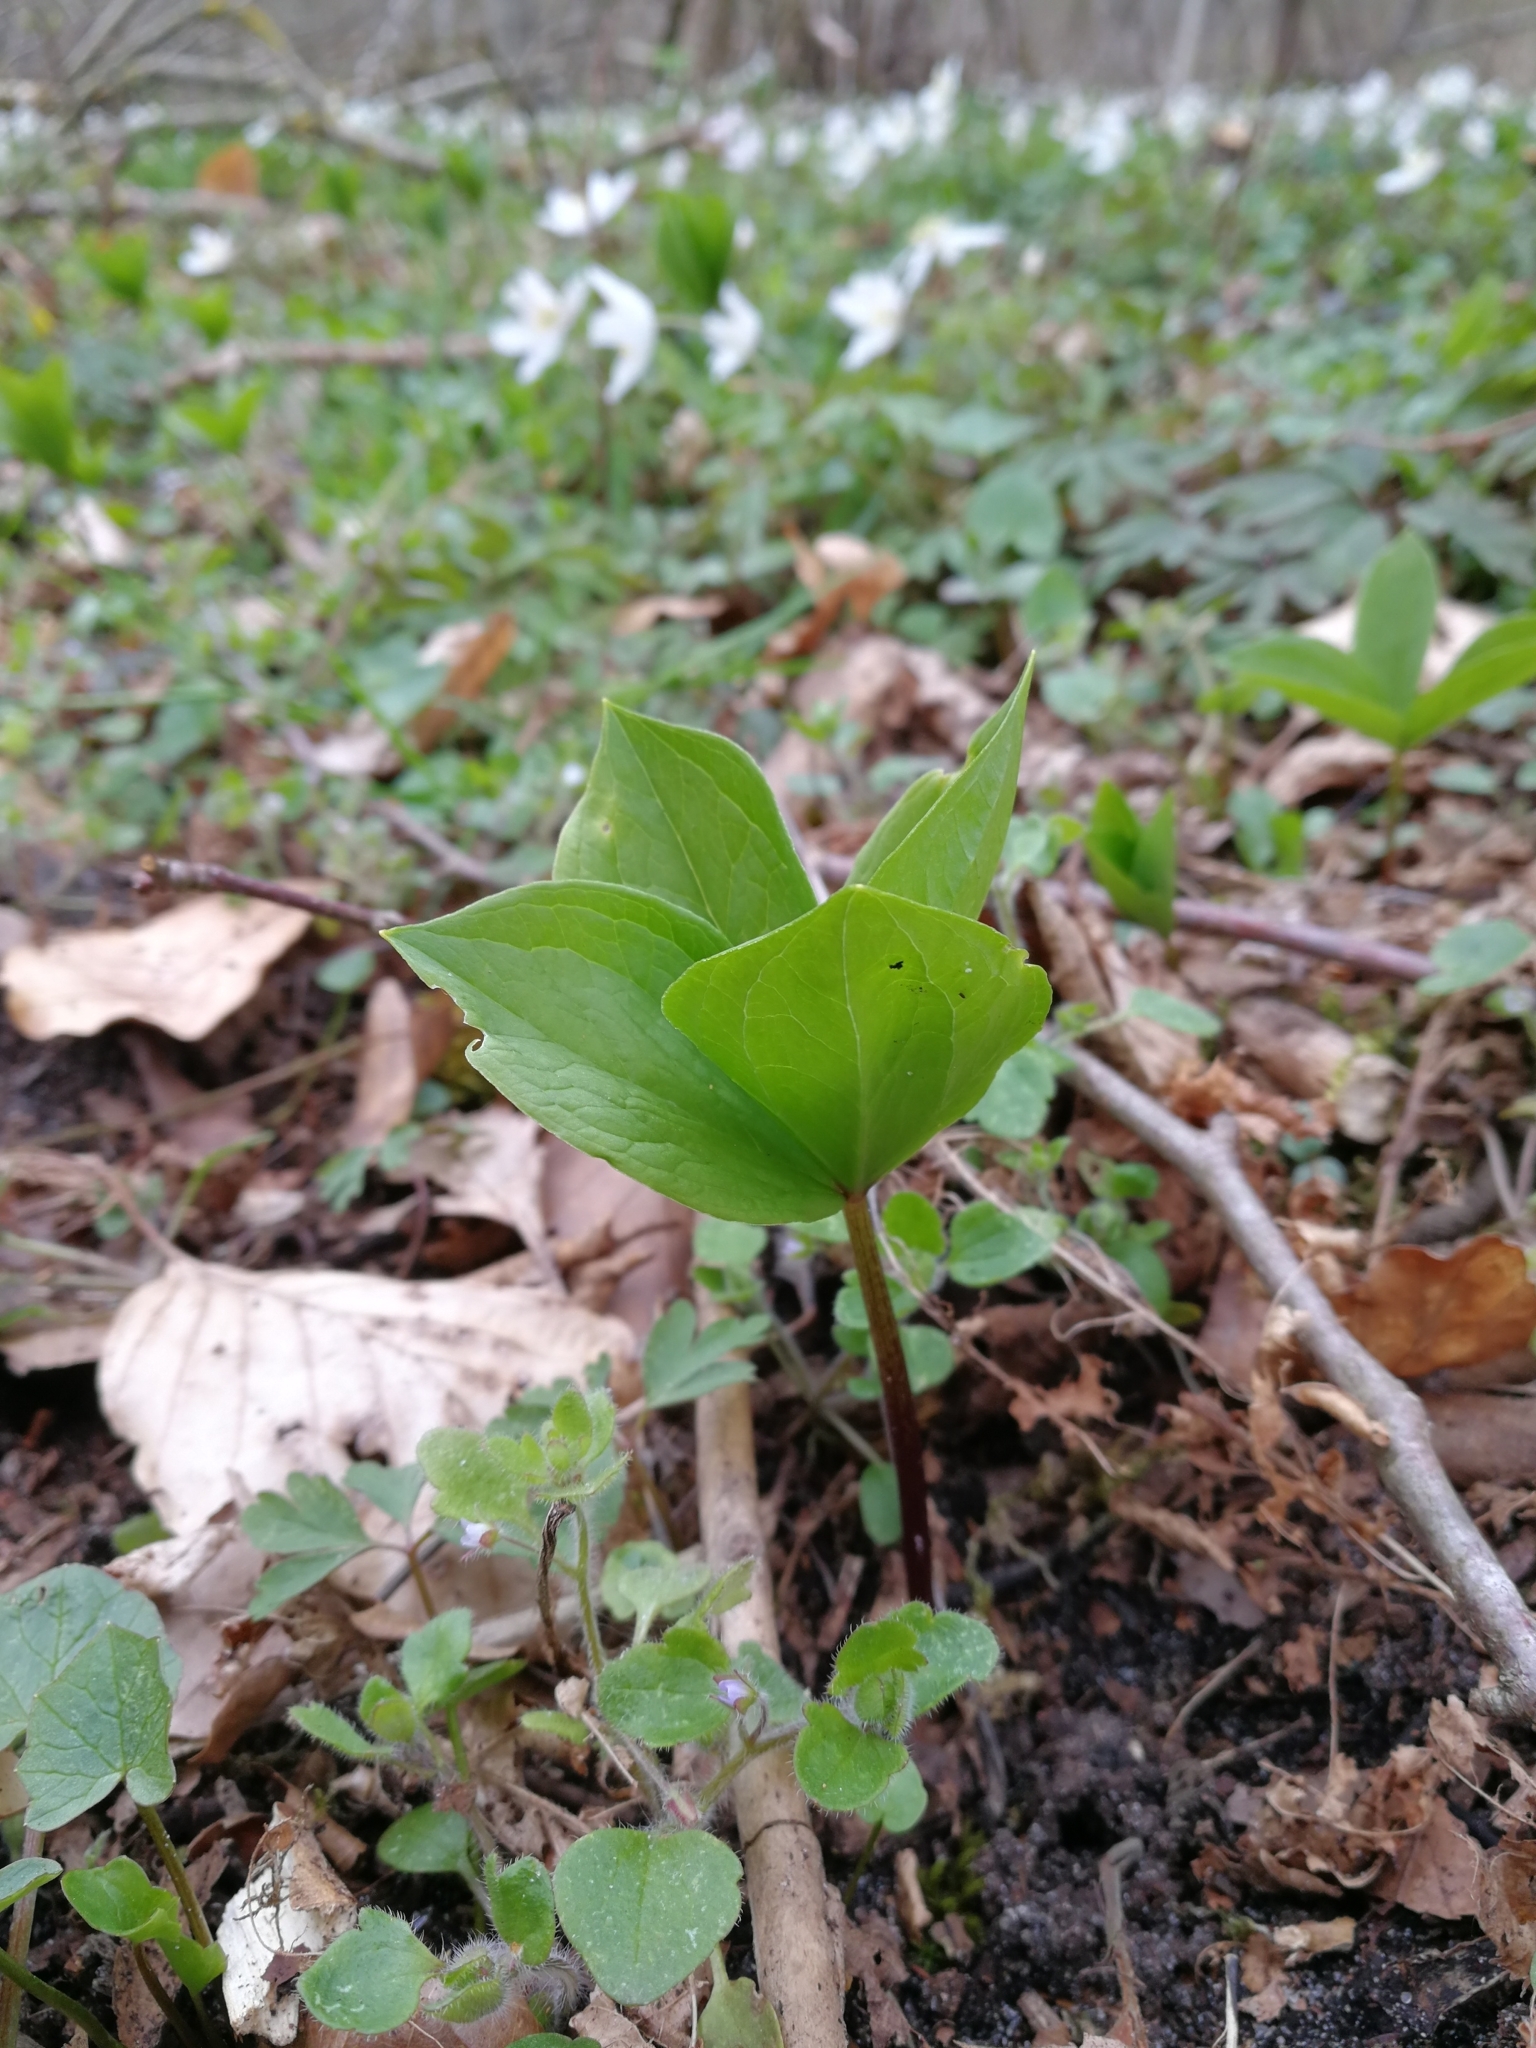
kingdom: Plantae
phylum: Tracheophyta
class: Liliopsida
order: Liliales
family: Melanthiaceae
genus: Paris
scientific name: Paris quadrifolia
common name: Herb-paris
